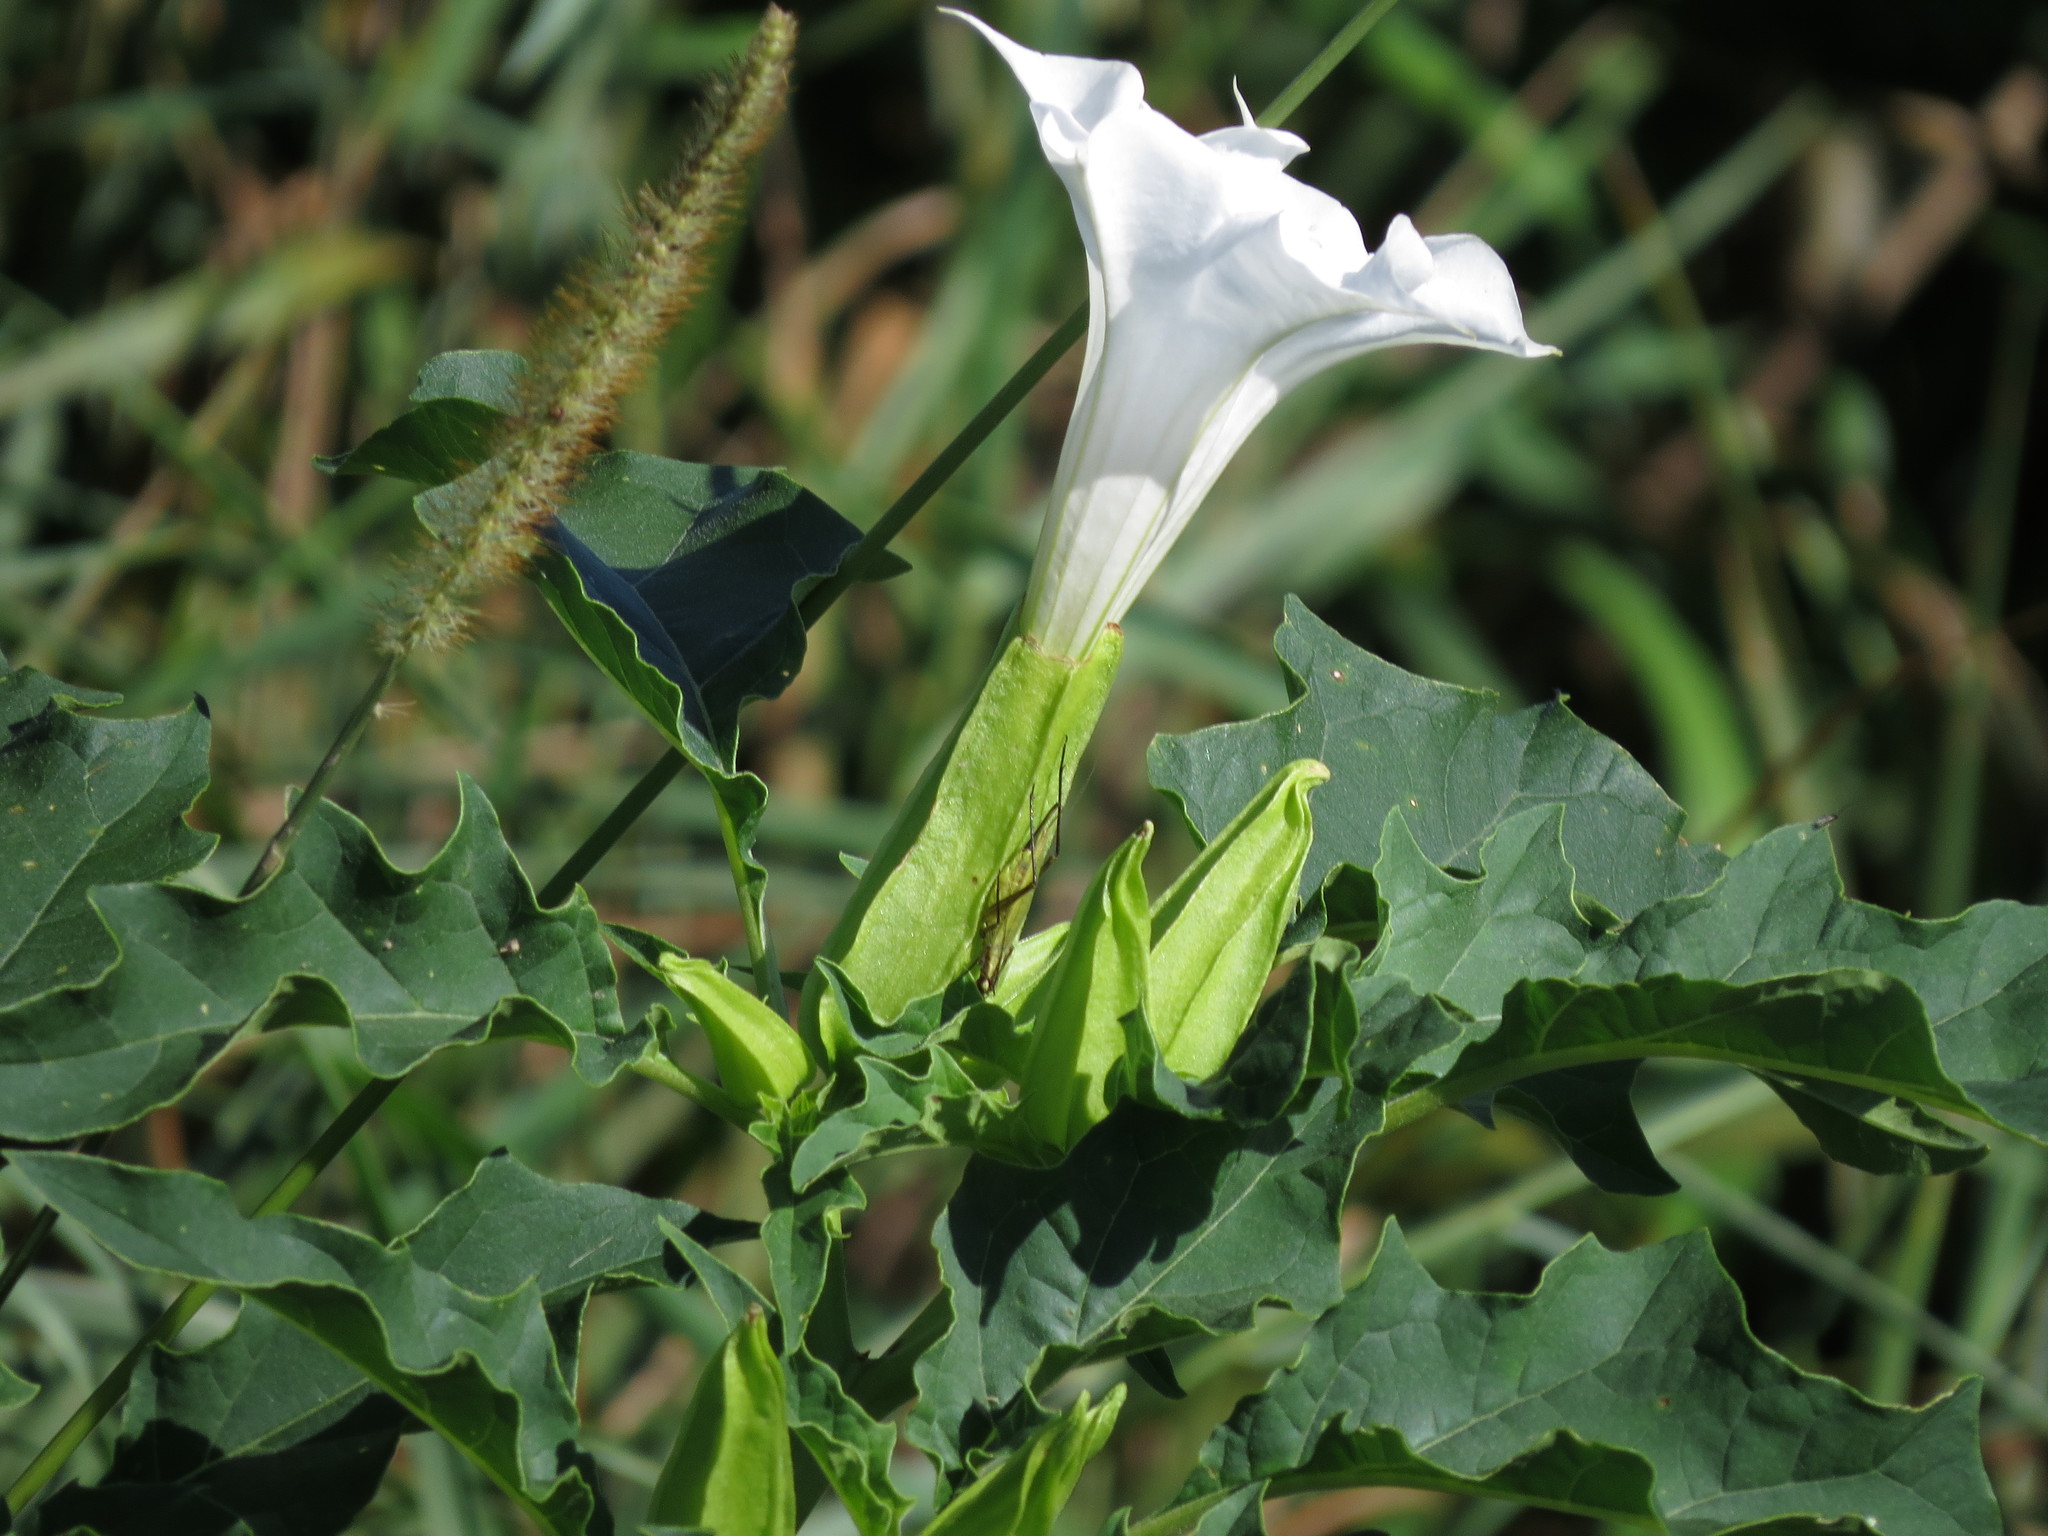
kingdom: Plantae
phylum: Tracheophyta
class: Magnoliopsida
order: Solanales
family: Solanaceae
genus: Datura
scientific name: Datura stramonium
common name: Thorn-apple
